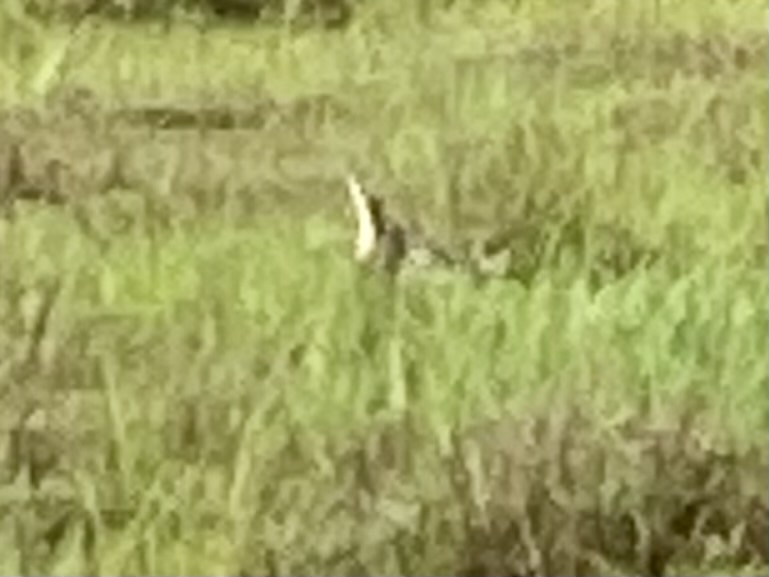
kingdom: Animalia
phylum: Chordata
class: Aves
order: Pelecaniformes
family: Ardeidae
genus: Botaurus
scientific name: Botaurus poiciloptilus
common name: Australasian bittern
